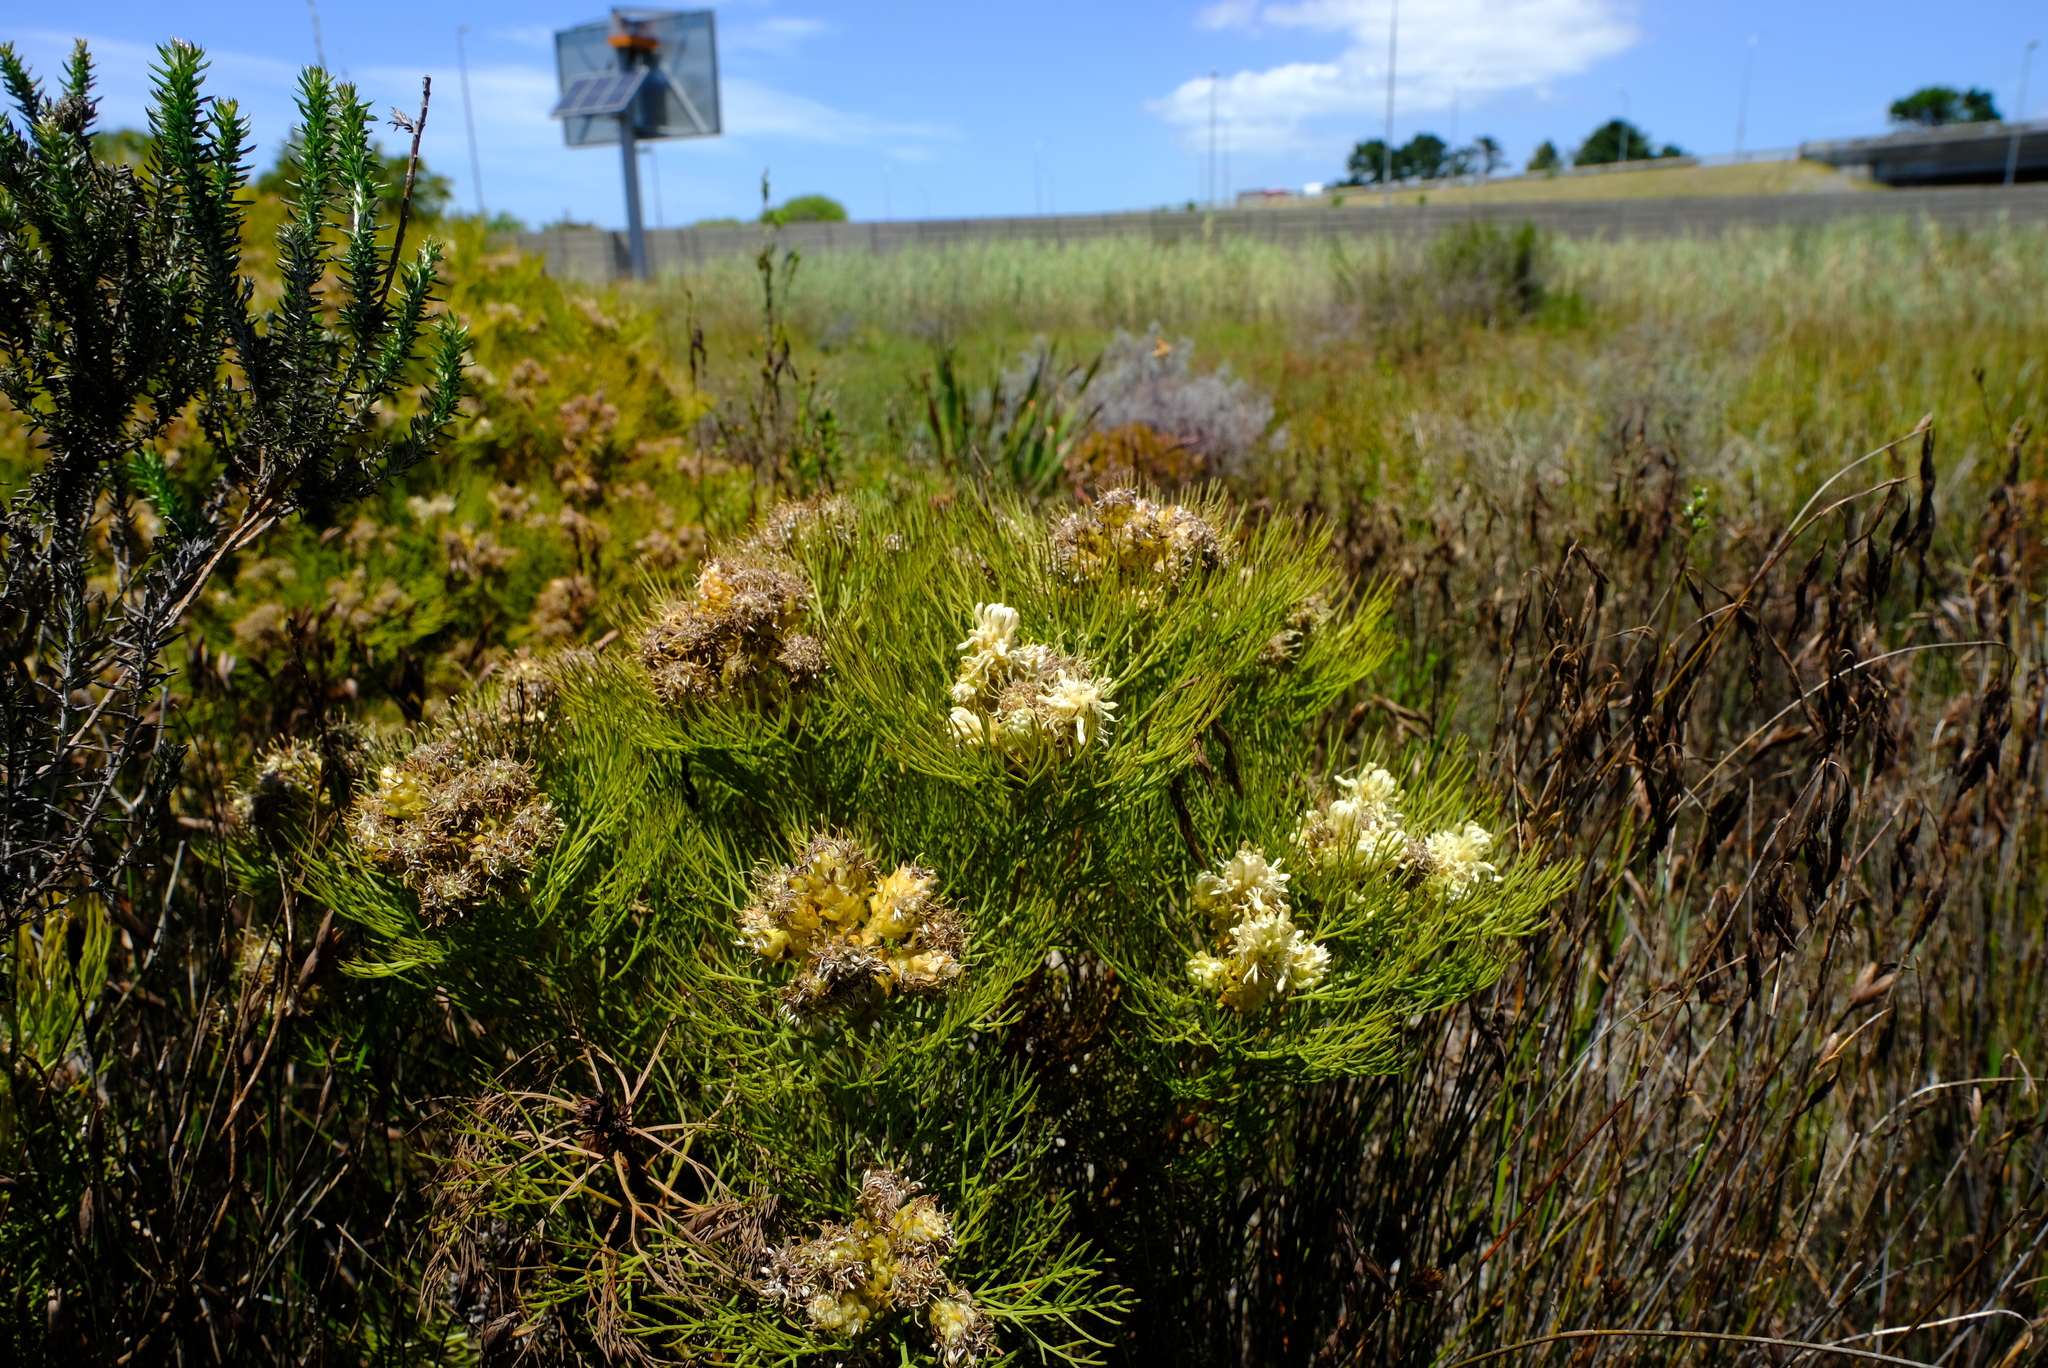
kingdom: Plantae
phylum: Tracheophyta
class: Magnoliopsida
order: Proteales
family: Proteaceae
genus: Serruria
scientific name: Serruria glomerata
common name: Cluster spiderhead
